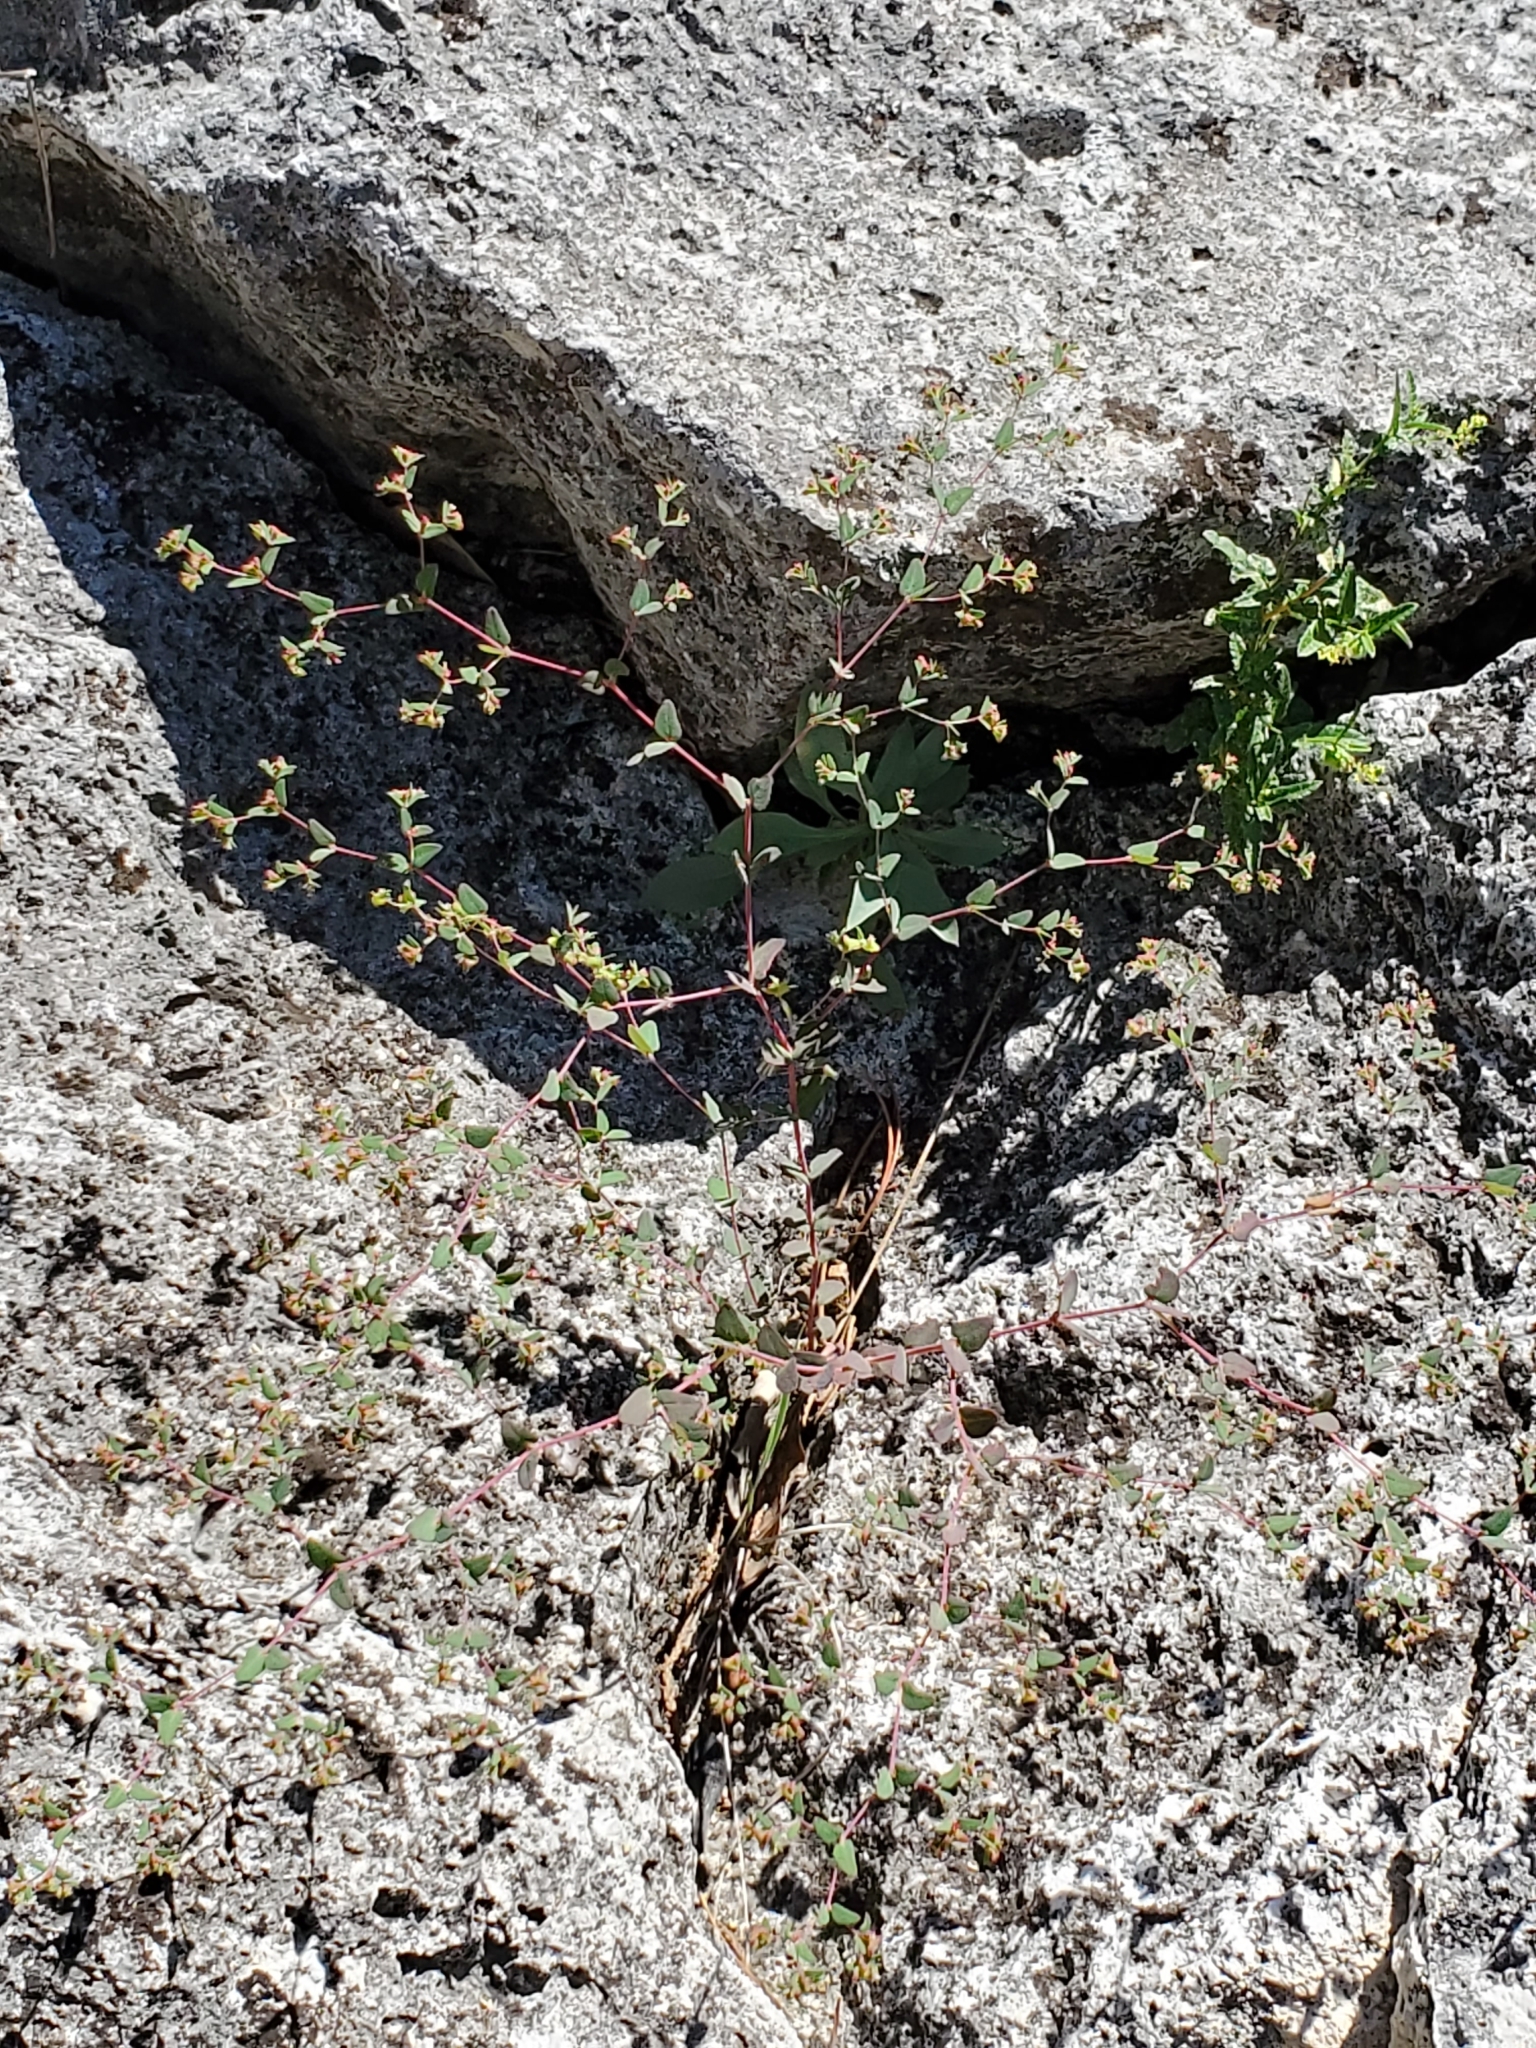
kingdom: Plantae
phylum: Tracheophyta
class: Magnoliopsida
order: Malpighiales
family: Euphorbiaceae
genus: Euphorbia
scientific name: Euphorbia villifera
